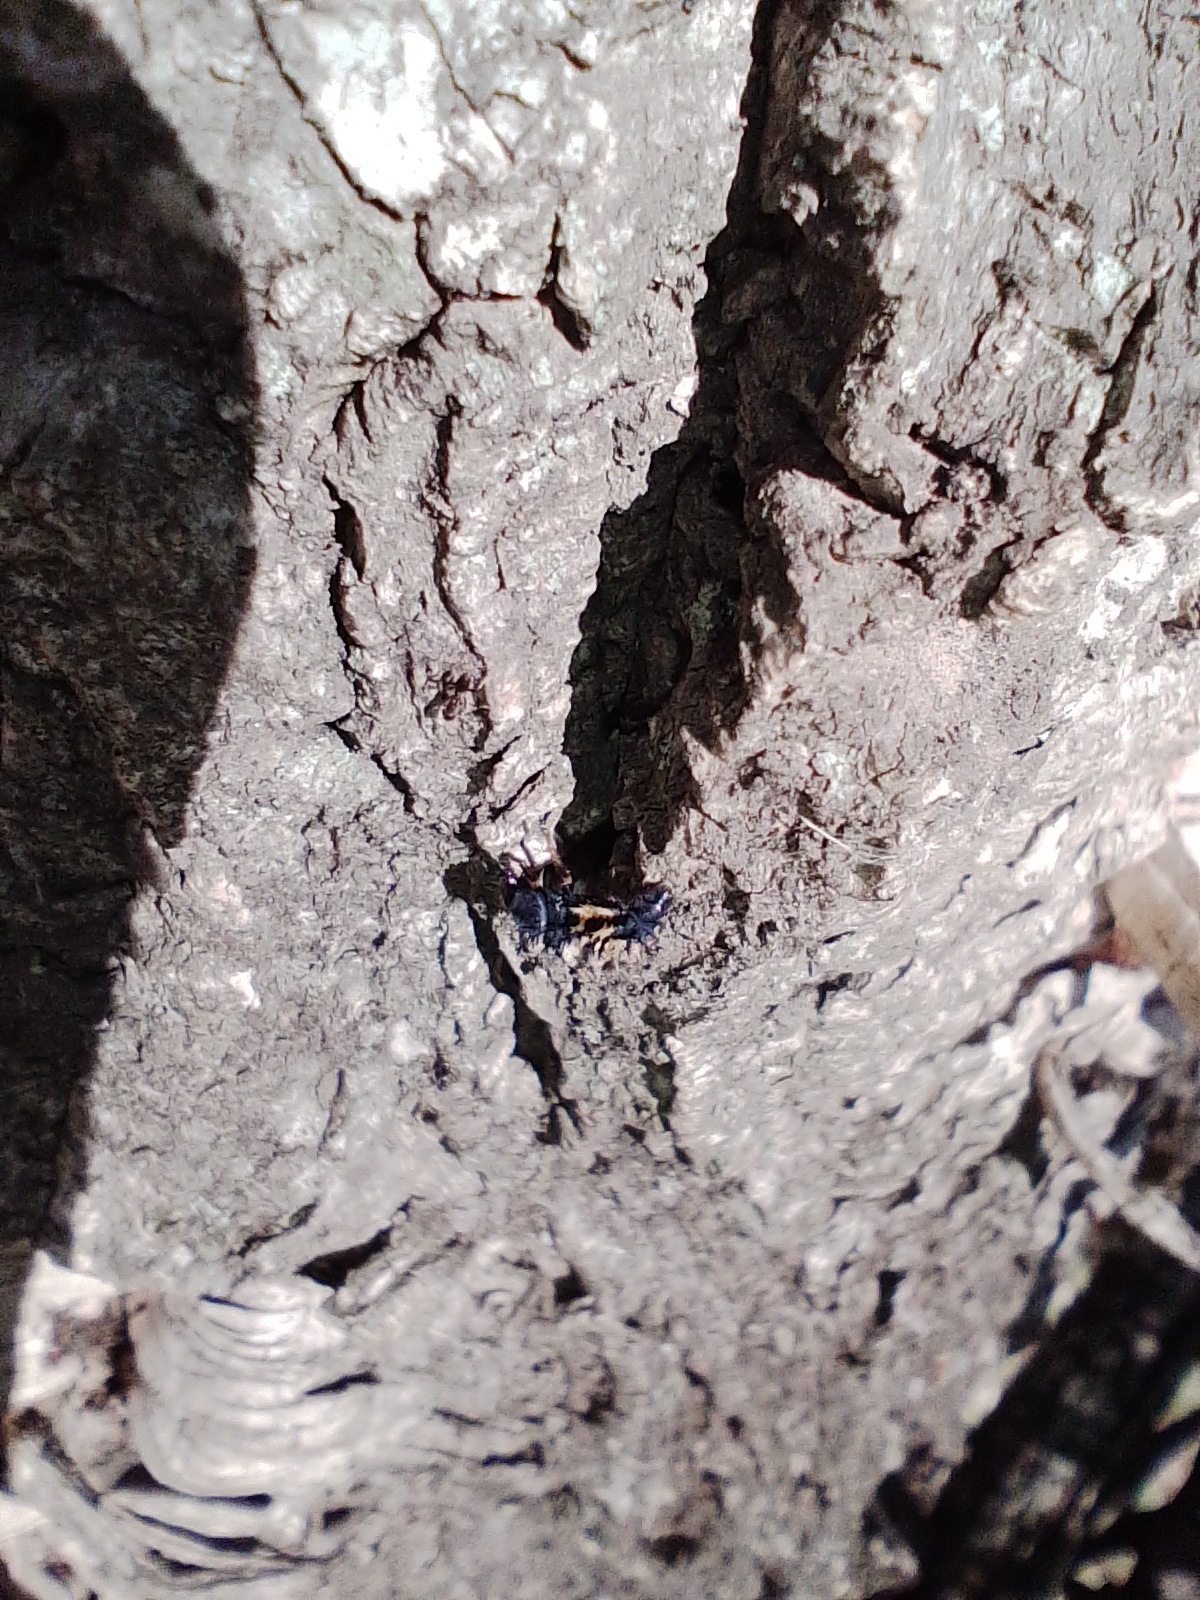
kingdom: Animalia
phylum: Arthropoda
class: Insecta
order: Coleoptera
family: Coccinellidae
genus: Harmonia
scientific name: Harmonia axyridis
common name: Harlequin ladybird
